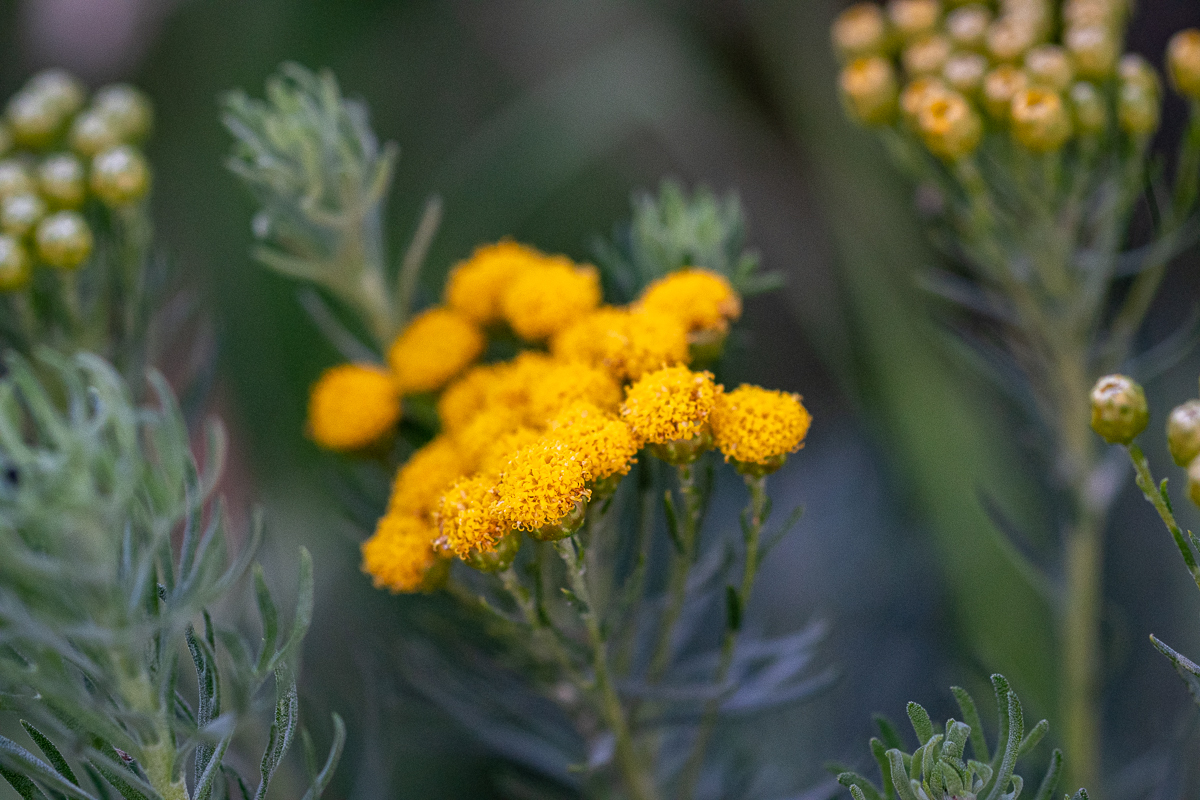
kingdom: Plantae
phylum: Tracheophyta
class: Magnoliopsida
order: Asterales
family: Asteraceae
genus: Athanasia
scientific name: Athanasia trifurcata
